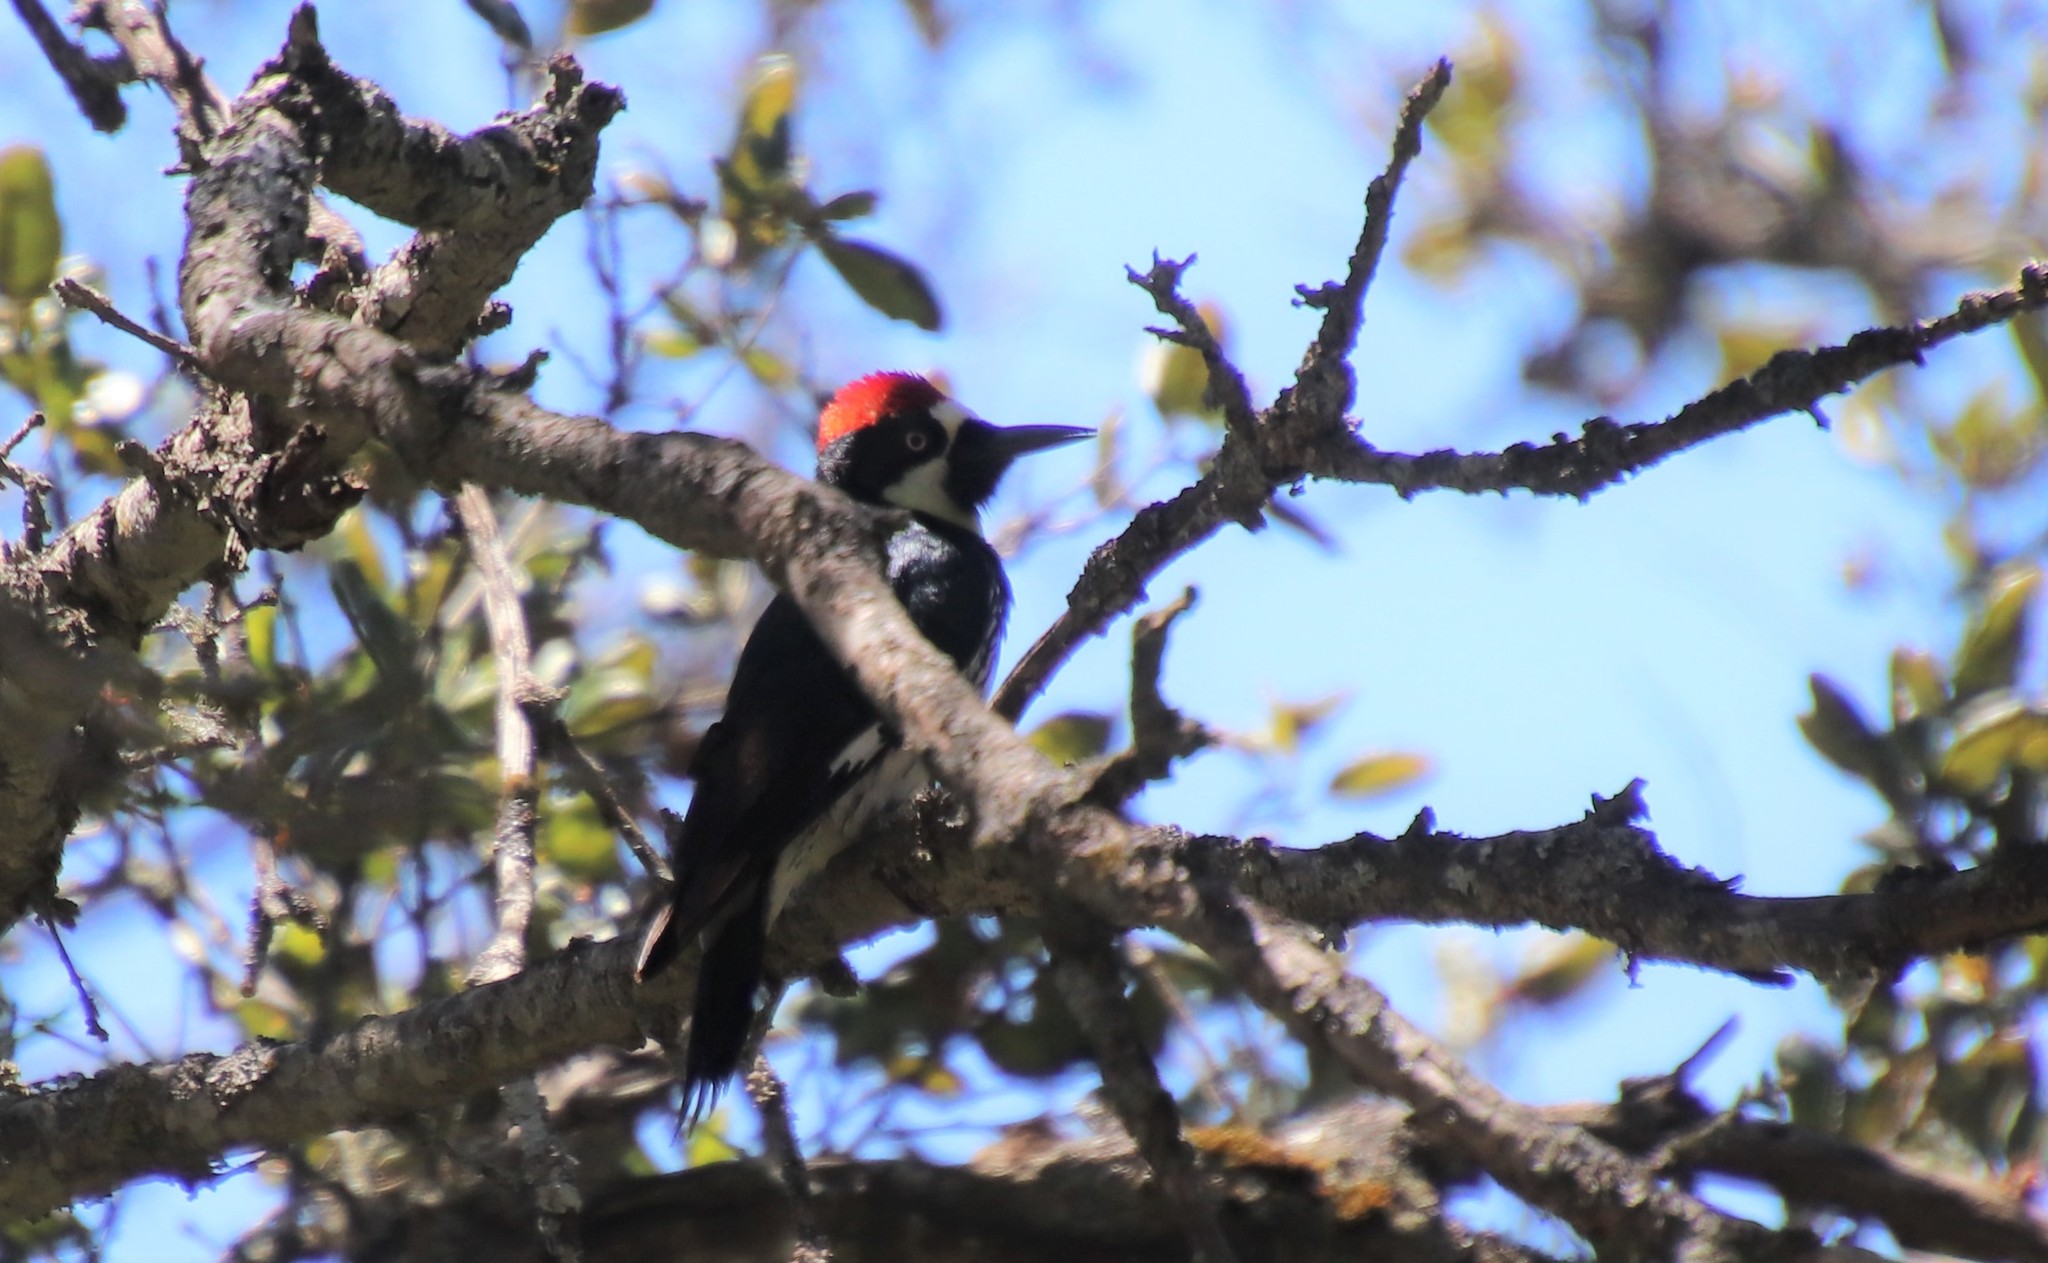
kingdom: Animalia
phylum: Chordata
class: Aves
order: Piciformes
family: Picidae
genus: Melanerpes
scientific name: Melanerpes formicivorus
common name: Acorn woodpecker
